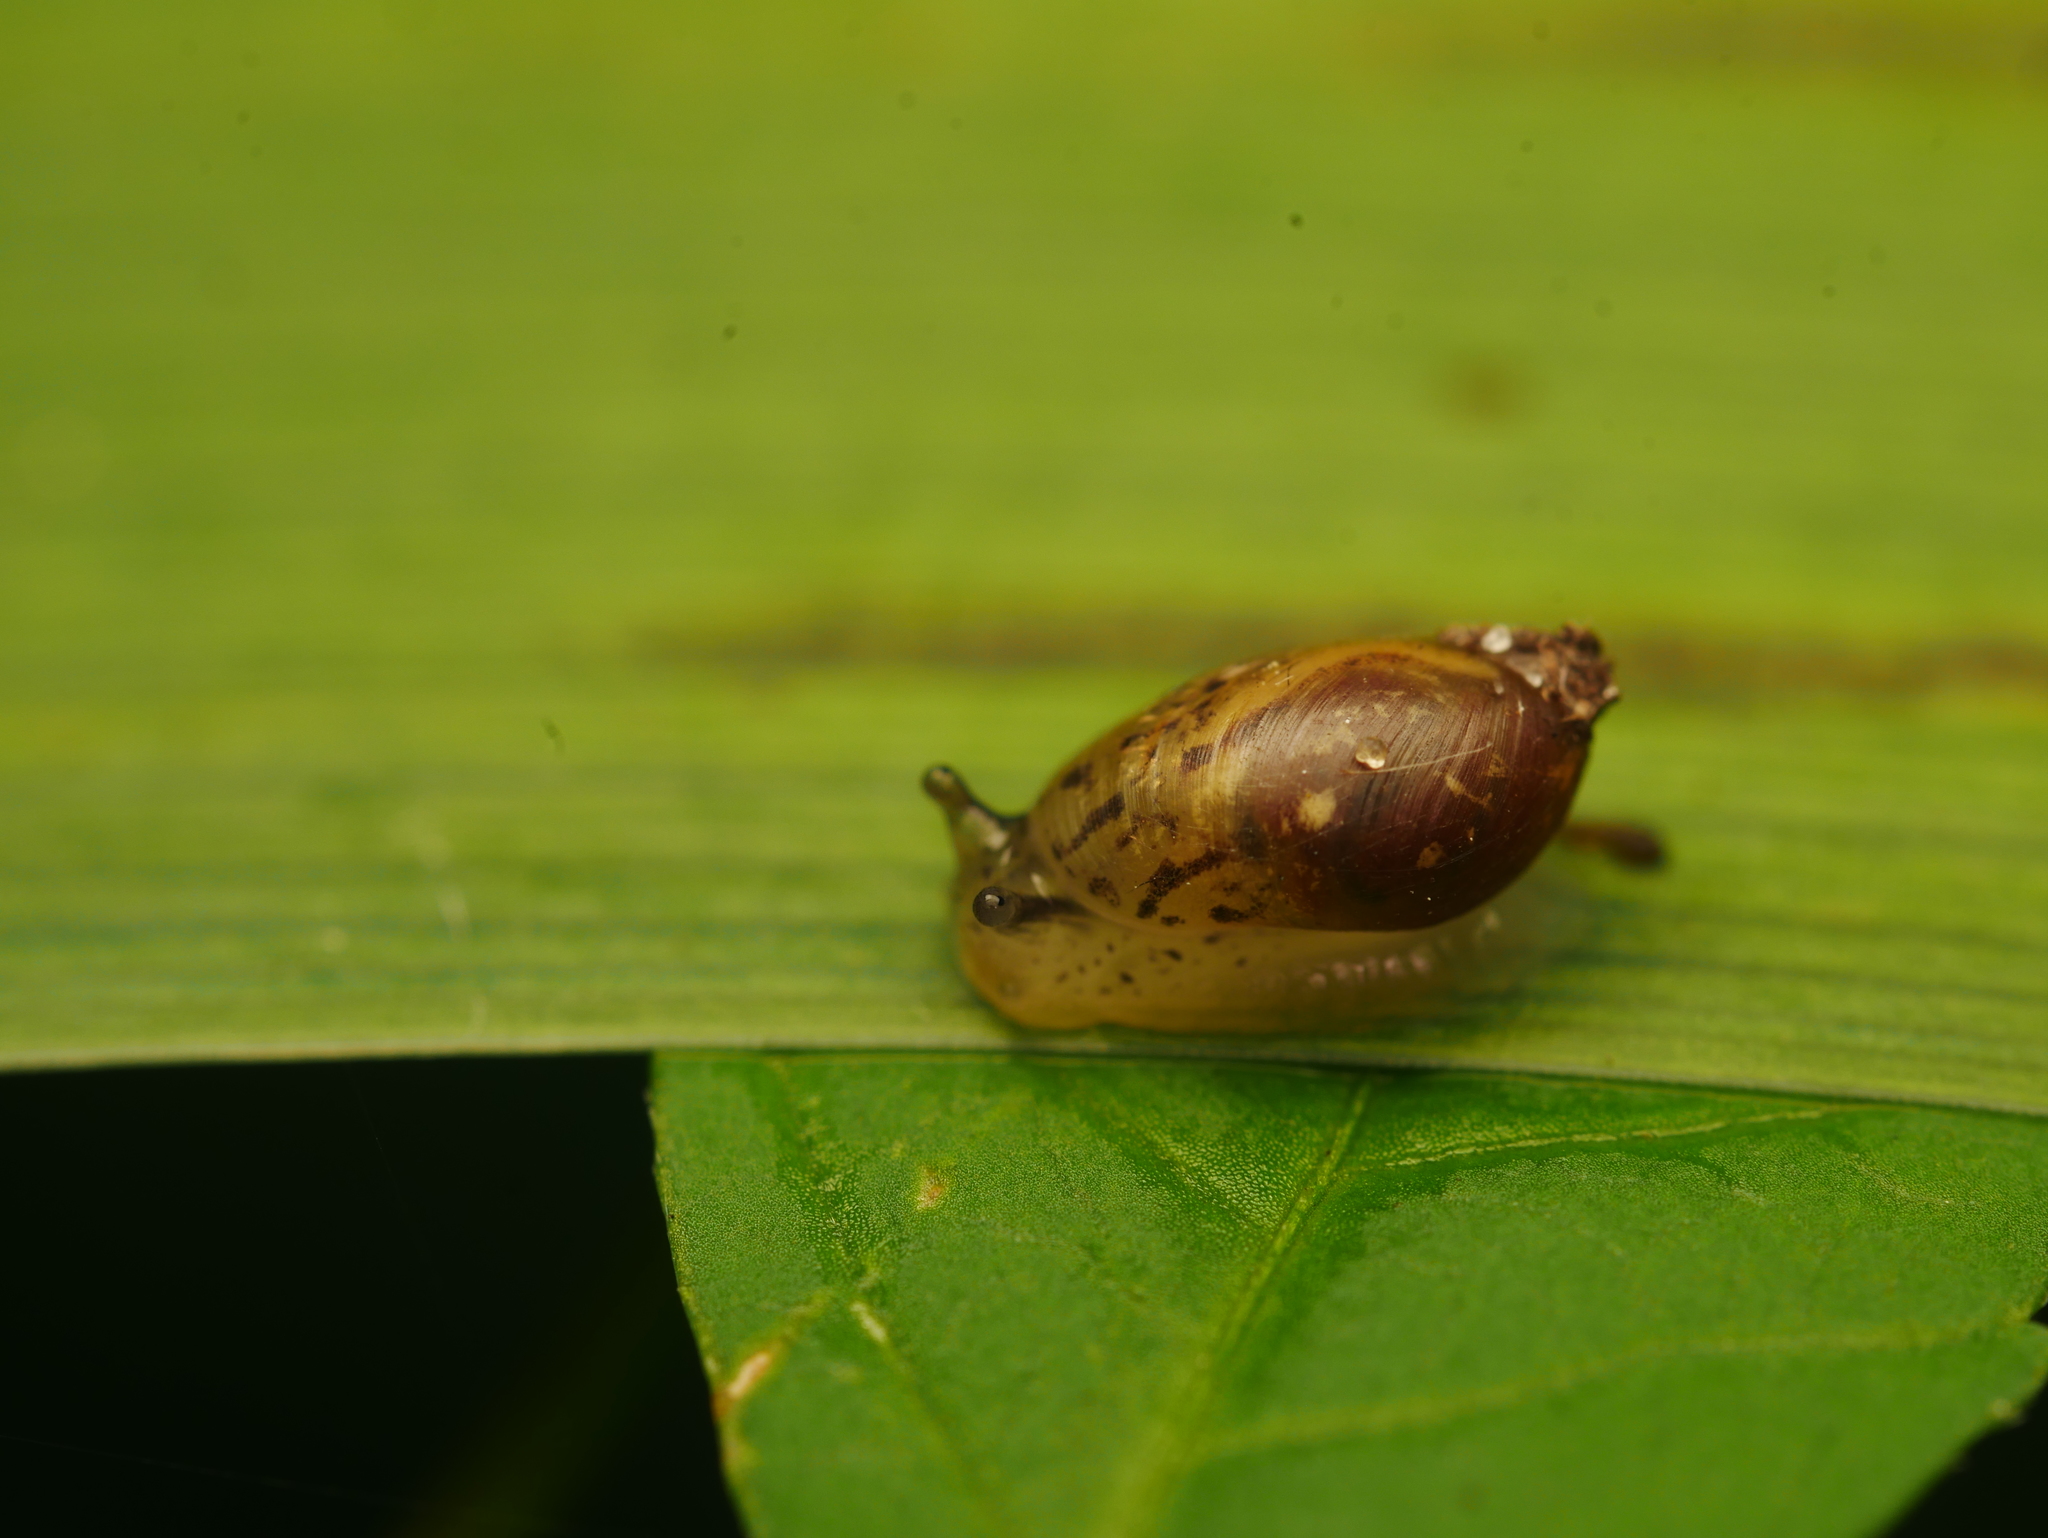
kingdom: Animalia
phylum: Mollusca
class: Gastropoda
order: Stylommatophora
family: Succineidae
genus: Succinea
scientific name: Succinea putris
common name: European ambersnail
